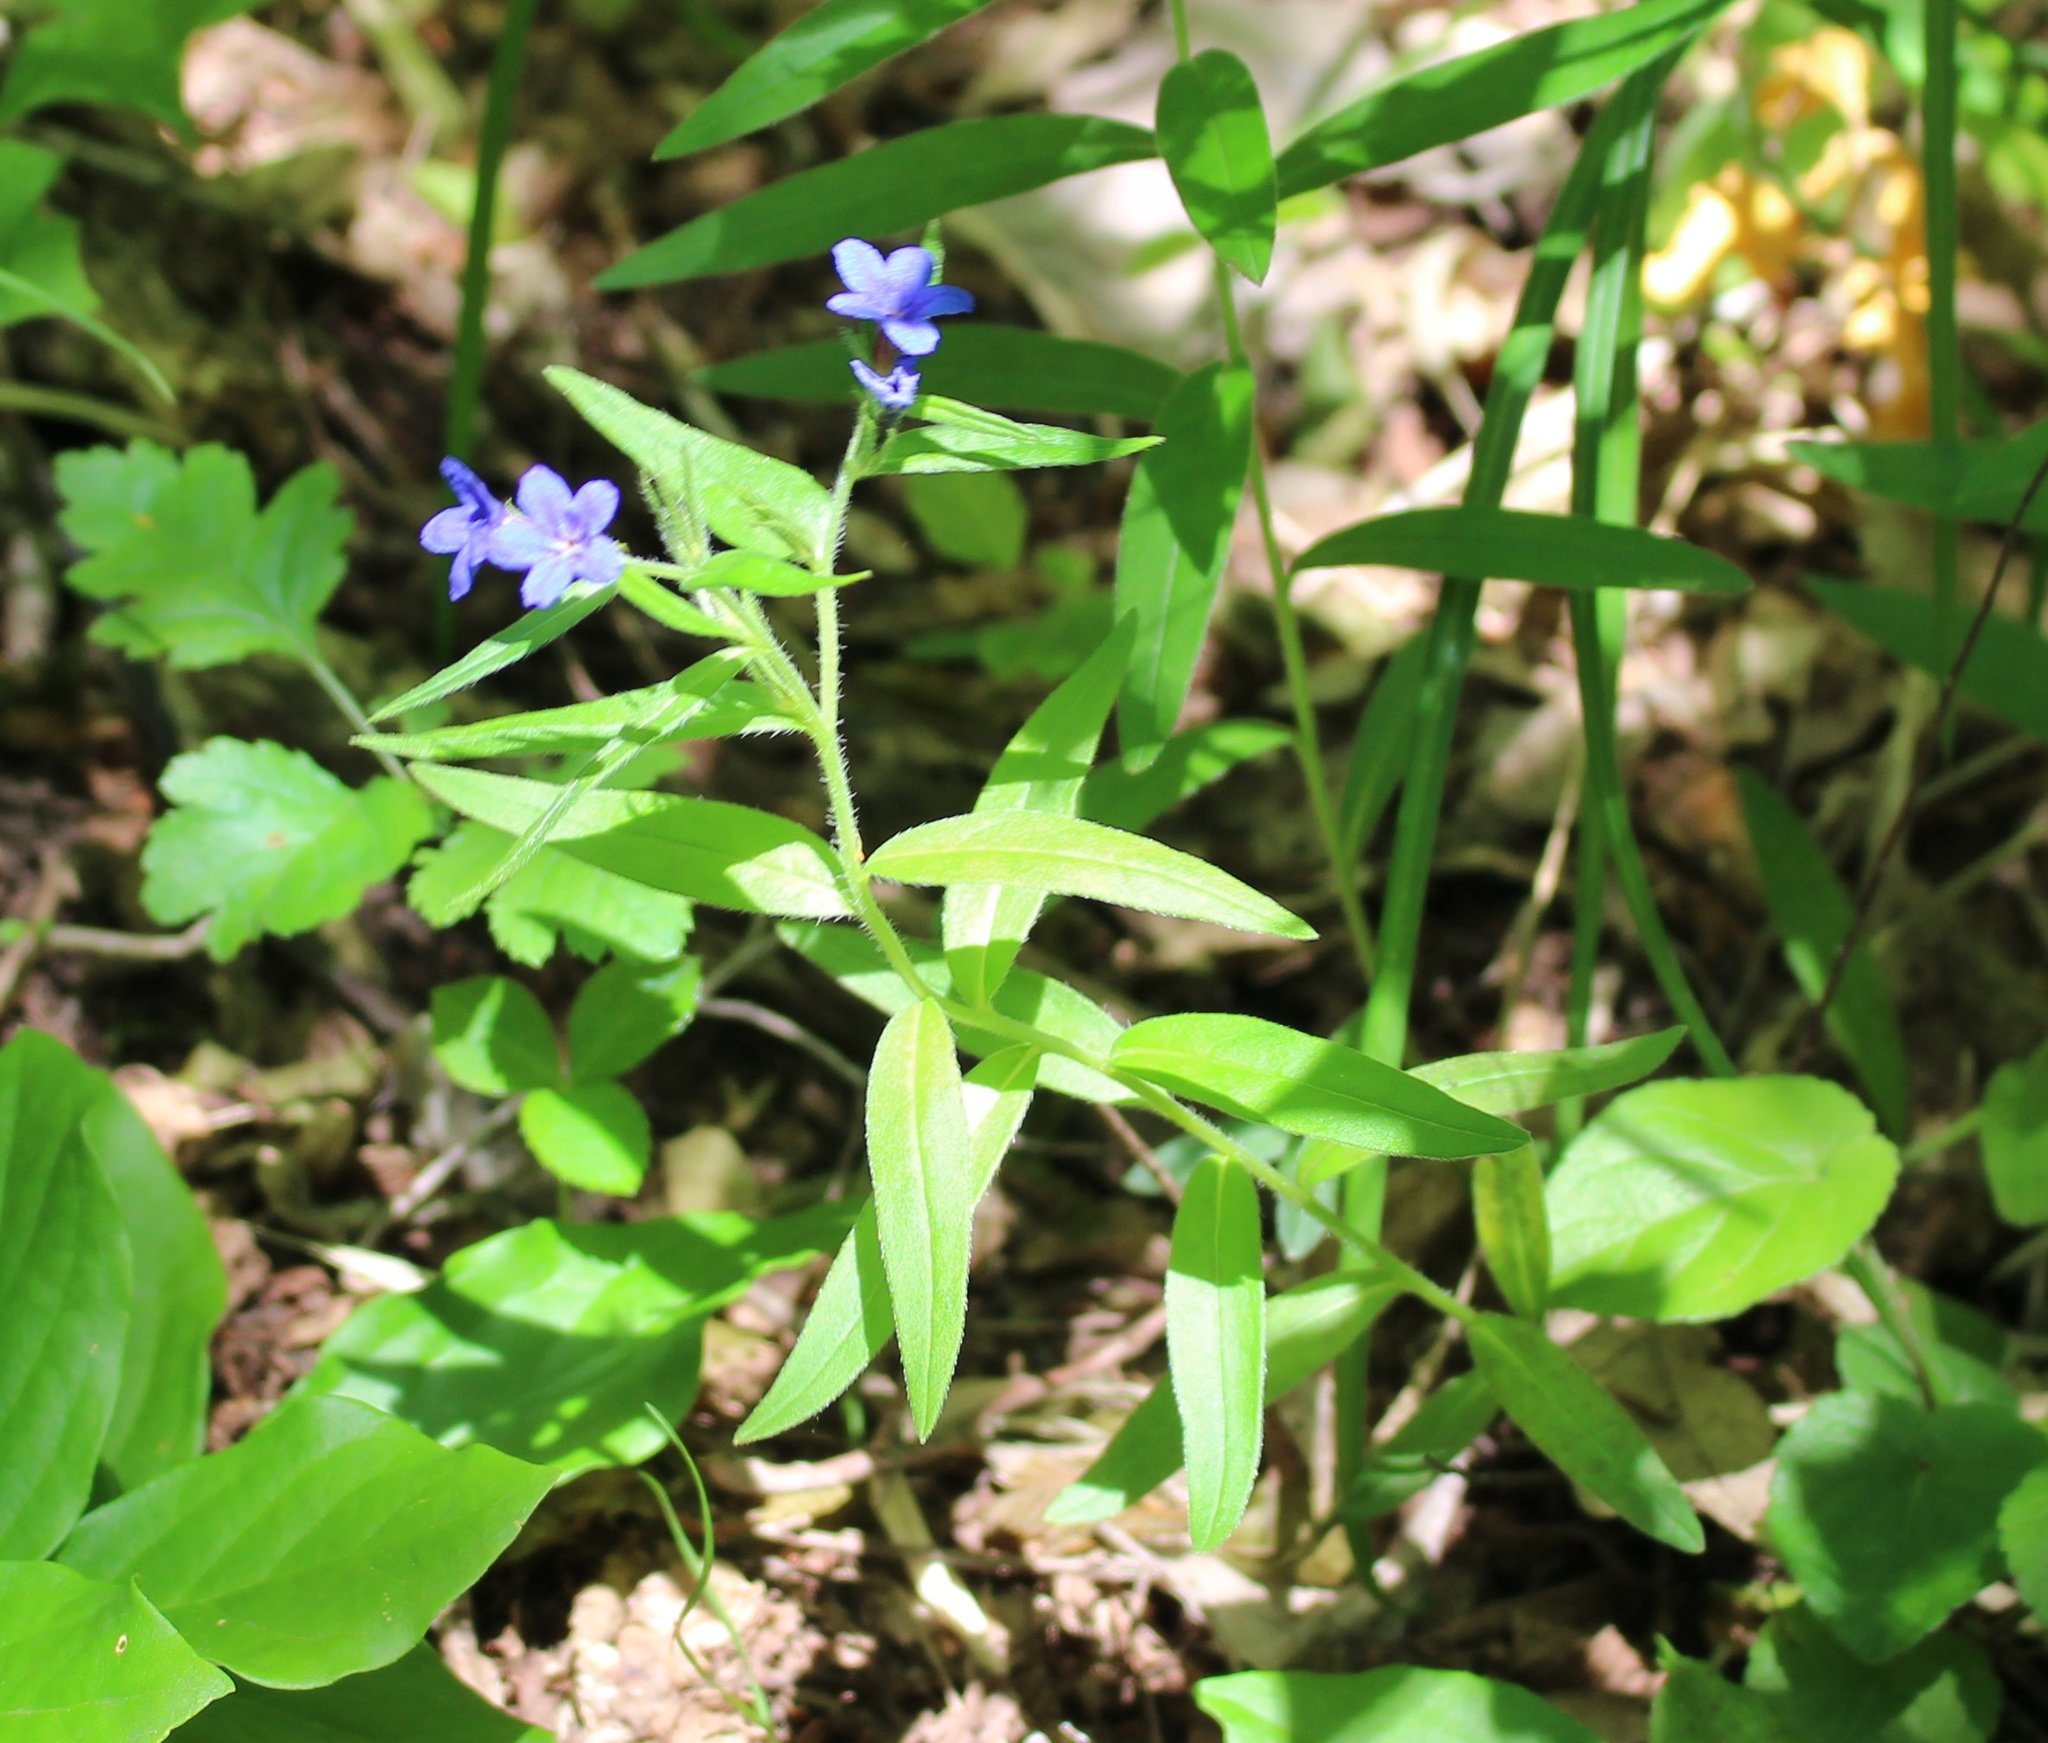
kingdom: Plantae
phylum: Tracheophyta
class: Magnoliopsida
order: Boraginales
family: Boraginaceae
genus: Aegonychon
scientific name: Aegonychon purpurocaeruleum
